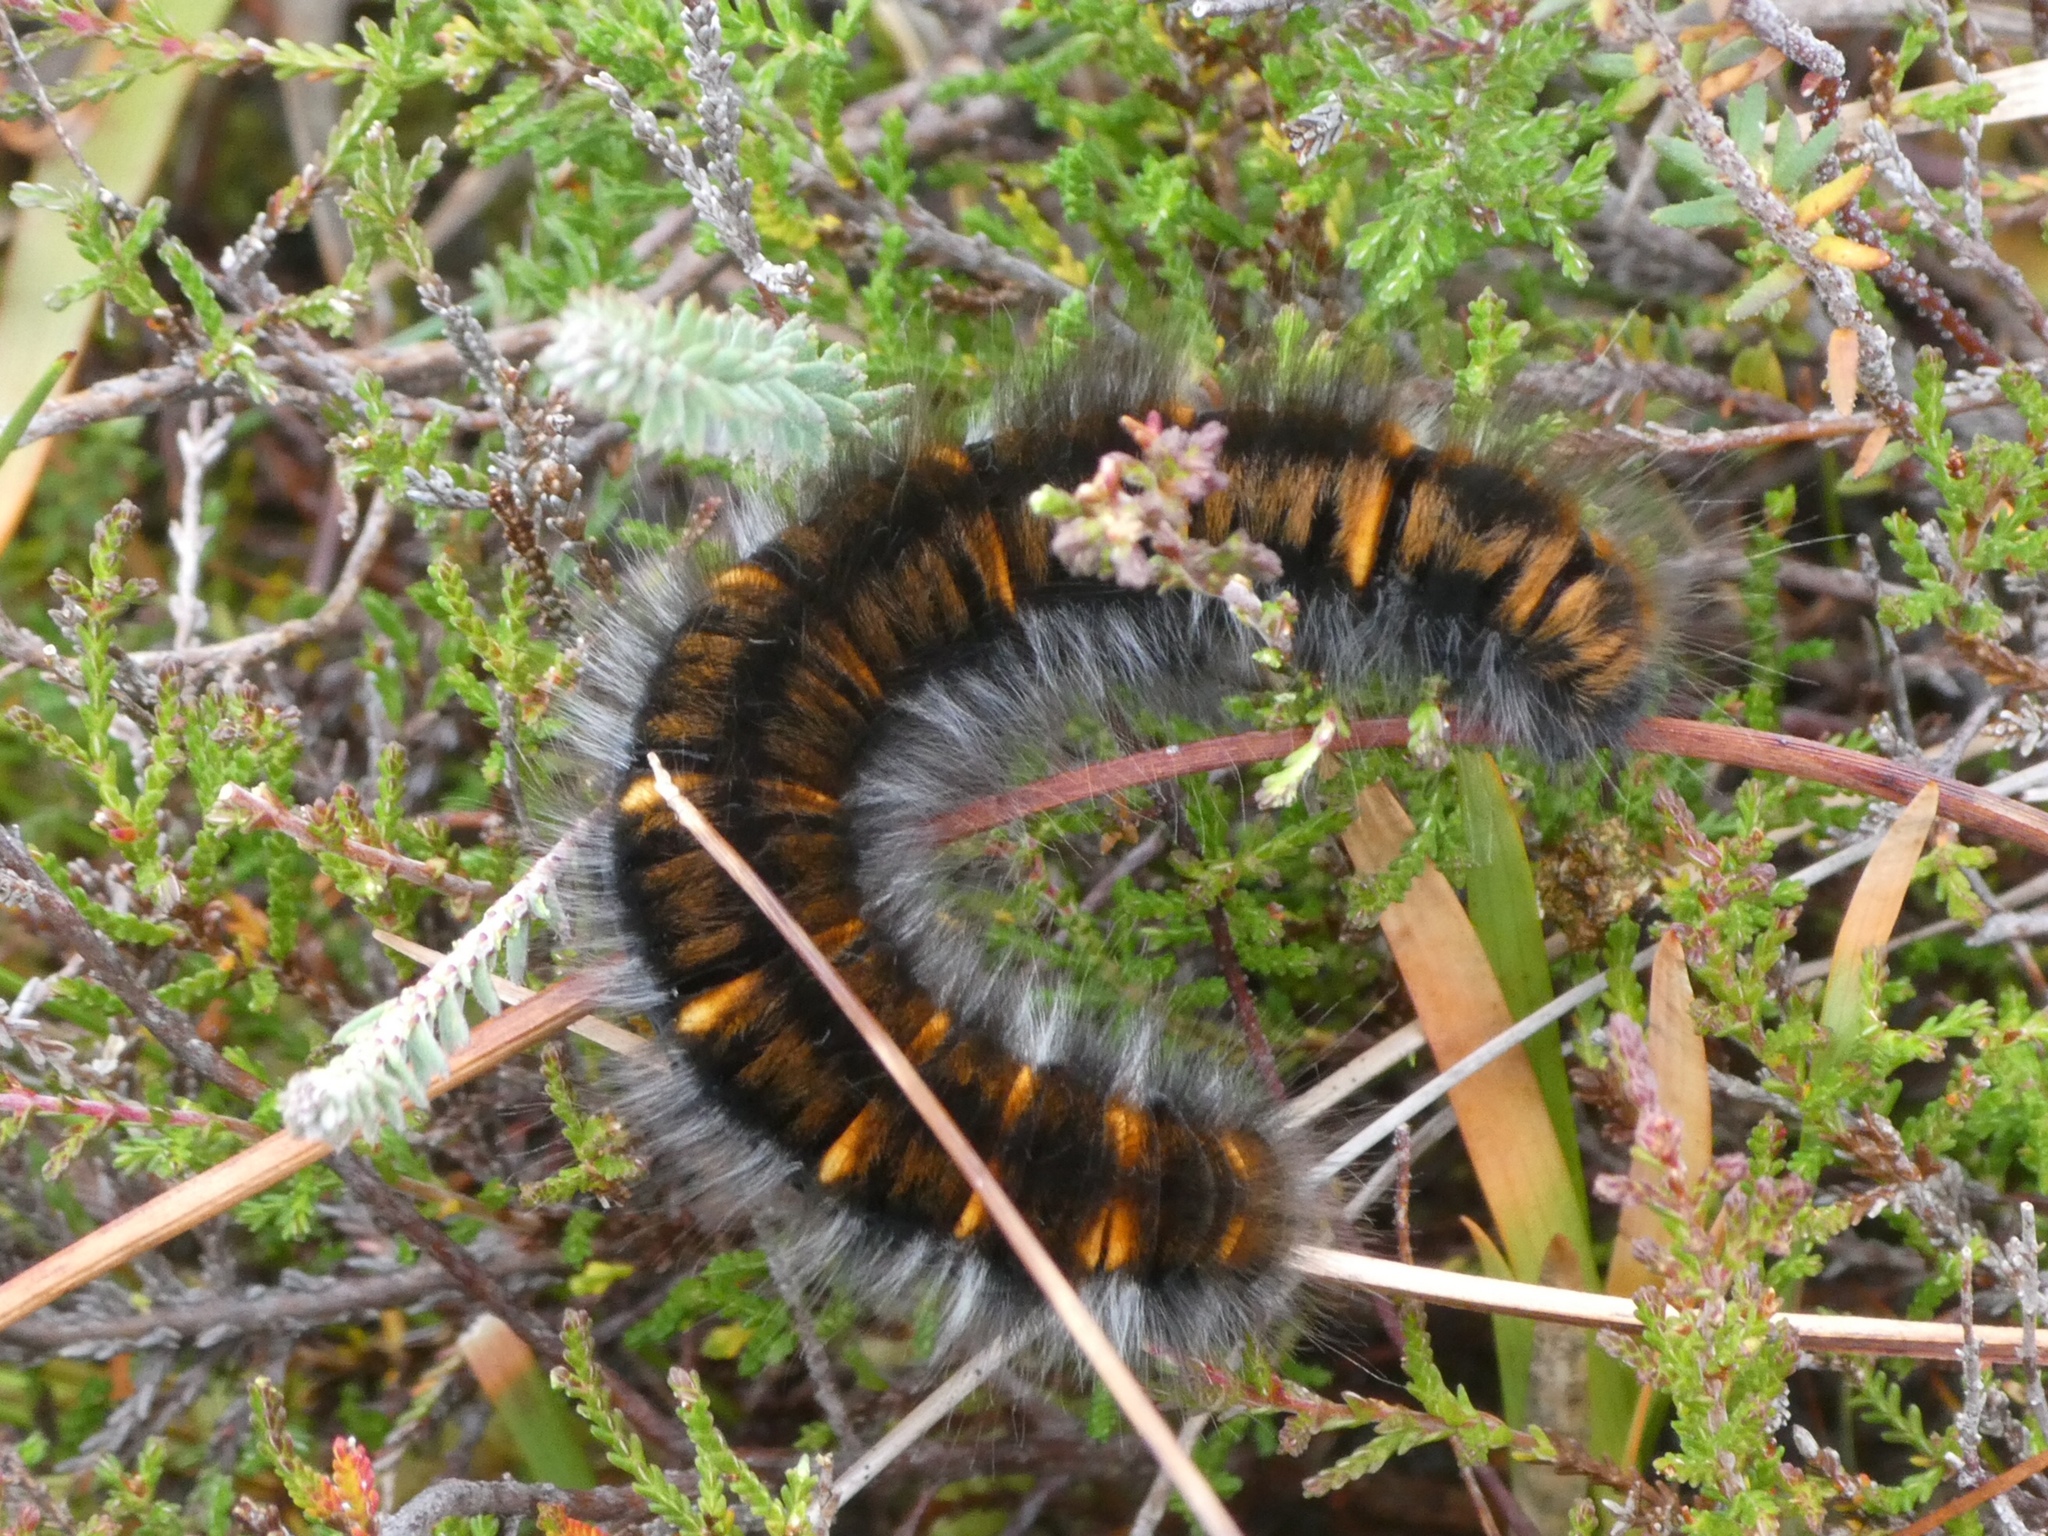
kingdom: Animalia
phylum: Arthropoda
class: Insecta
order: Lepidoptera
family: Lasiocampidae
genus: Macrothylacia
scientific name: Macrothylacia rubi
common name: Fox moth
